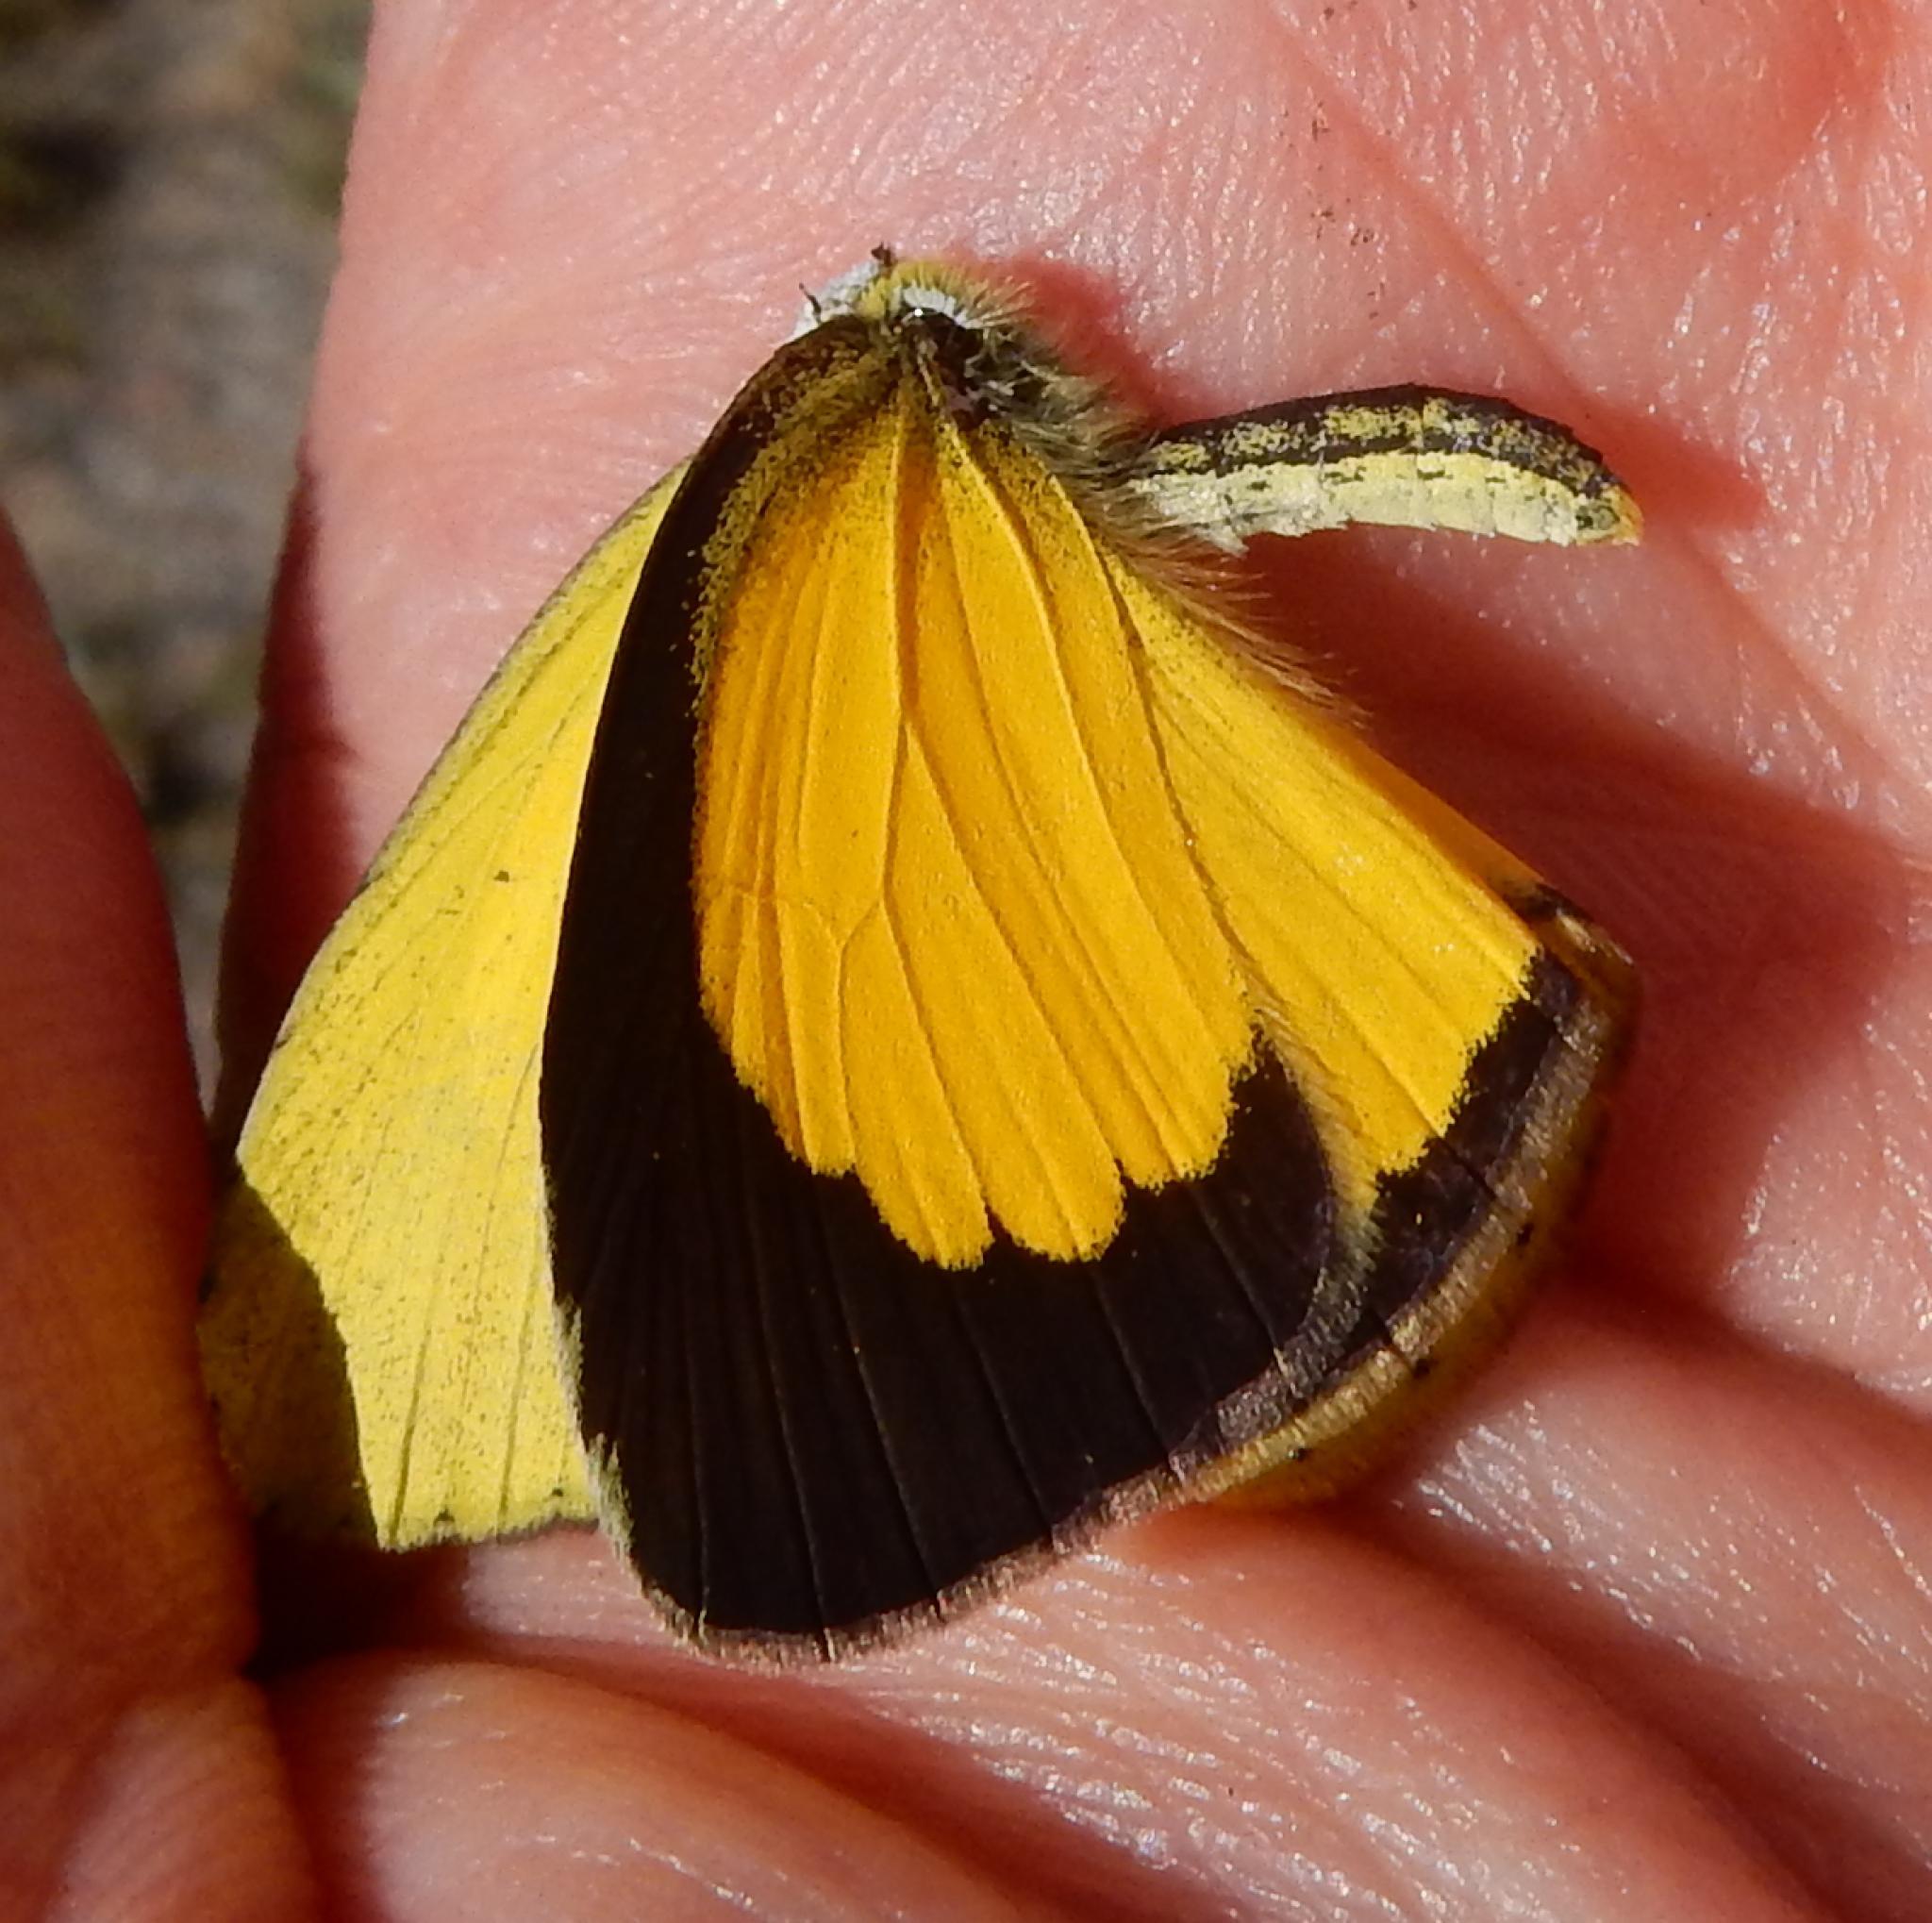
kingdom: Animalia
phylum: Arthropoda
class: Insecta
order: Lepidoptera
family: Pieridae
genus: Eurema
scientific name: Eurema brigitta
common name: Small grass yellow
